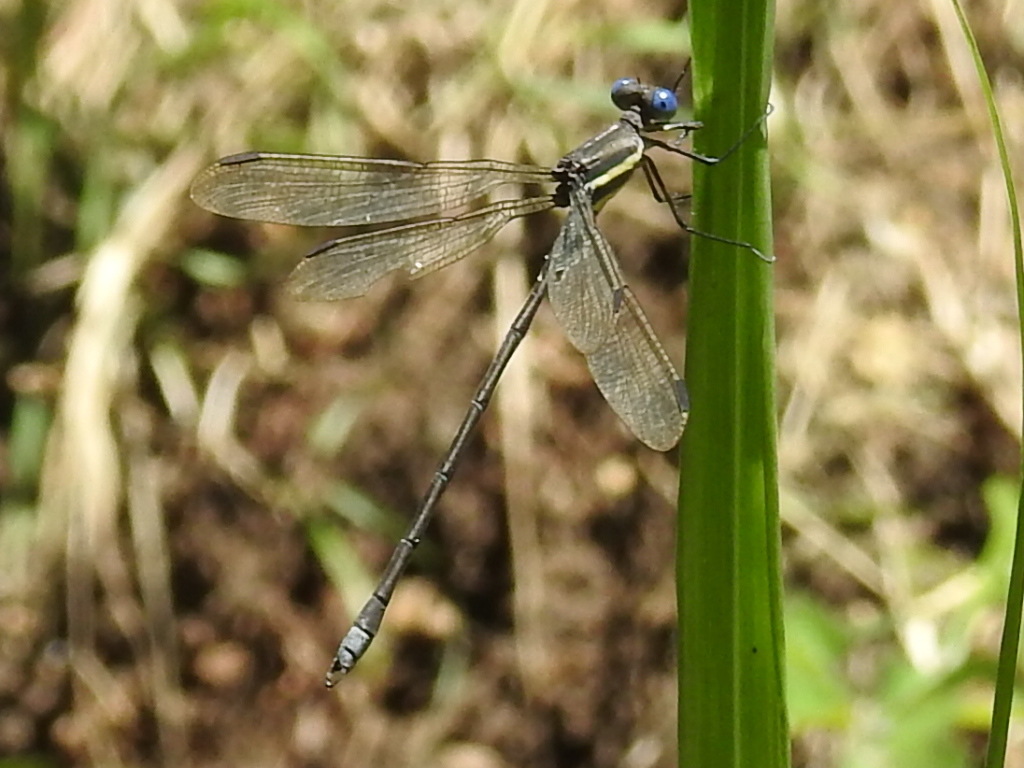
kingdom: Animalia
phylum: Arthropoda
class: Insecta
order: Odonata
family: Lestidae
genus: Archilestes
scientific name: Archilestes grandis
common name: Great spreadwing
